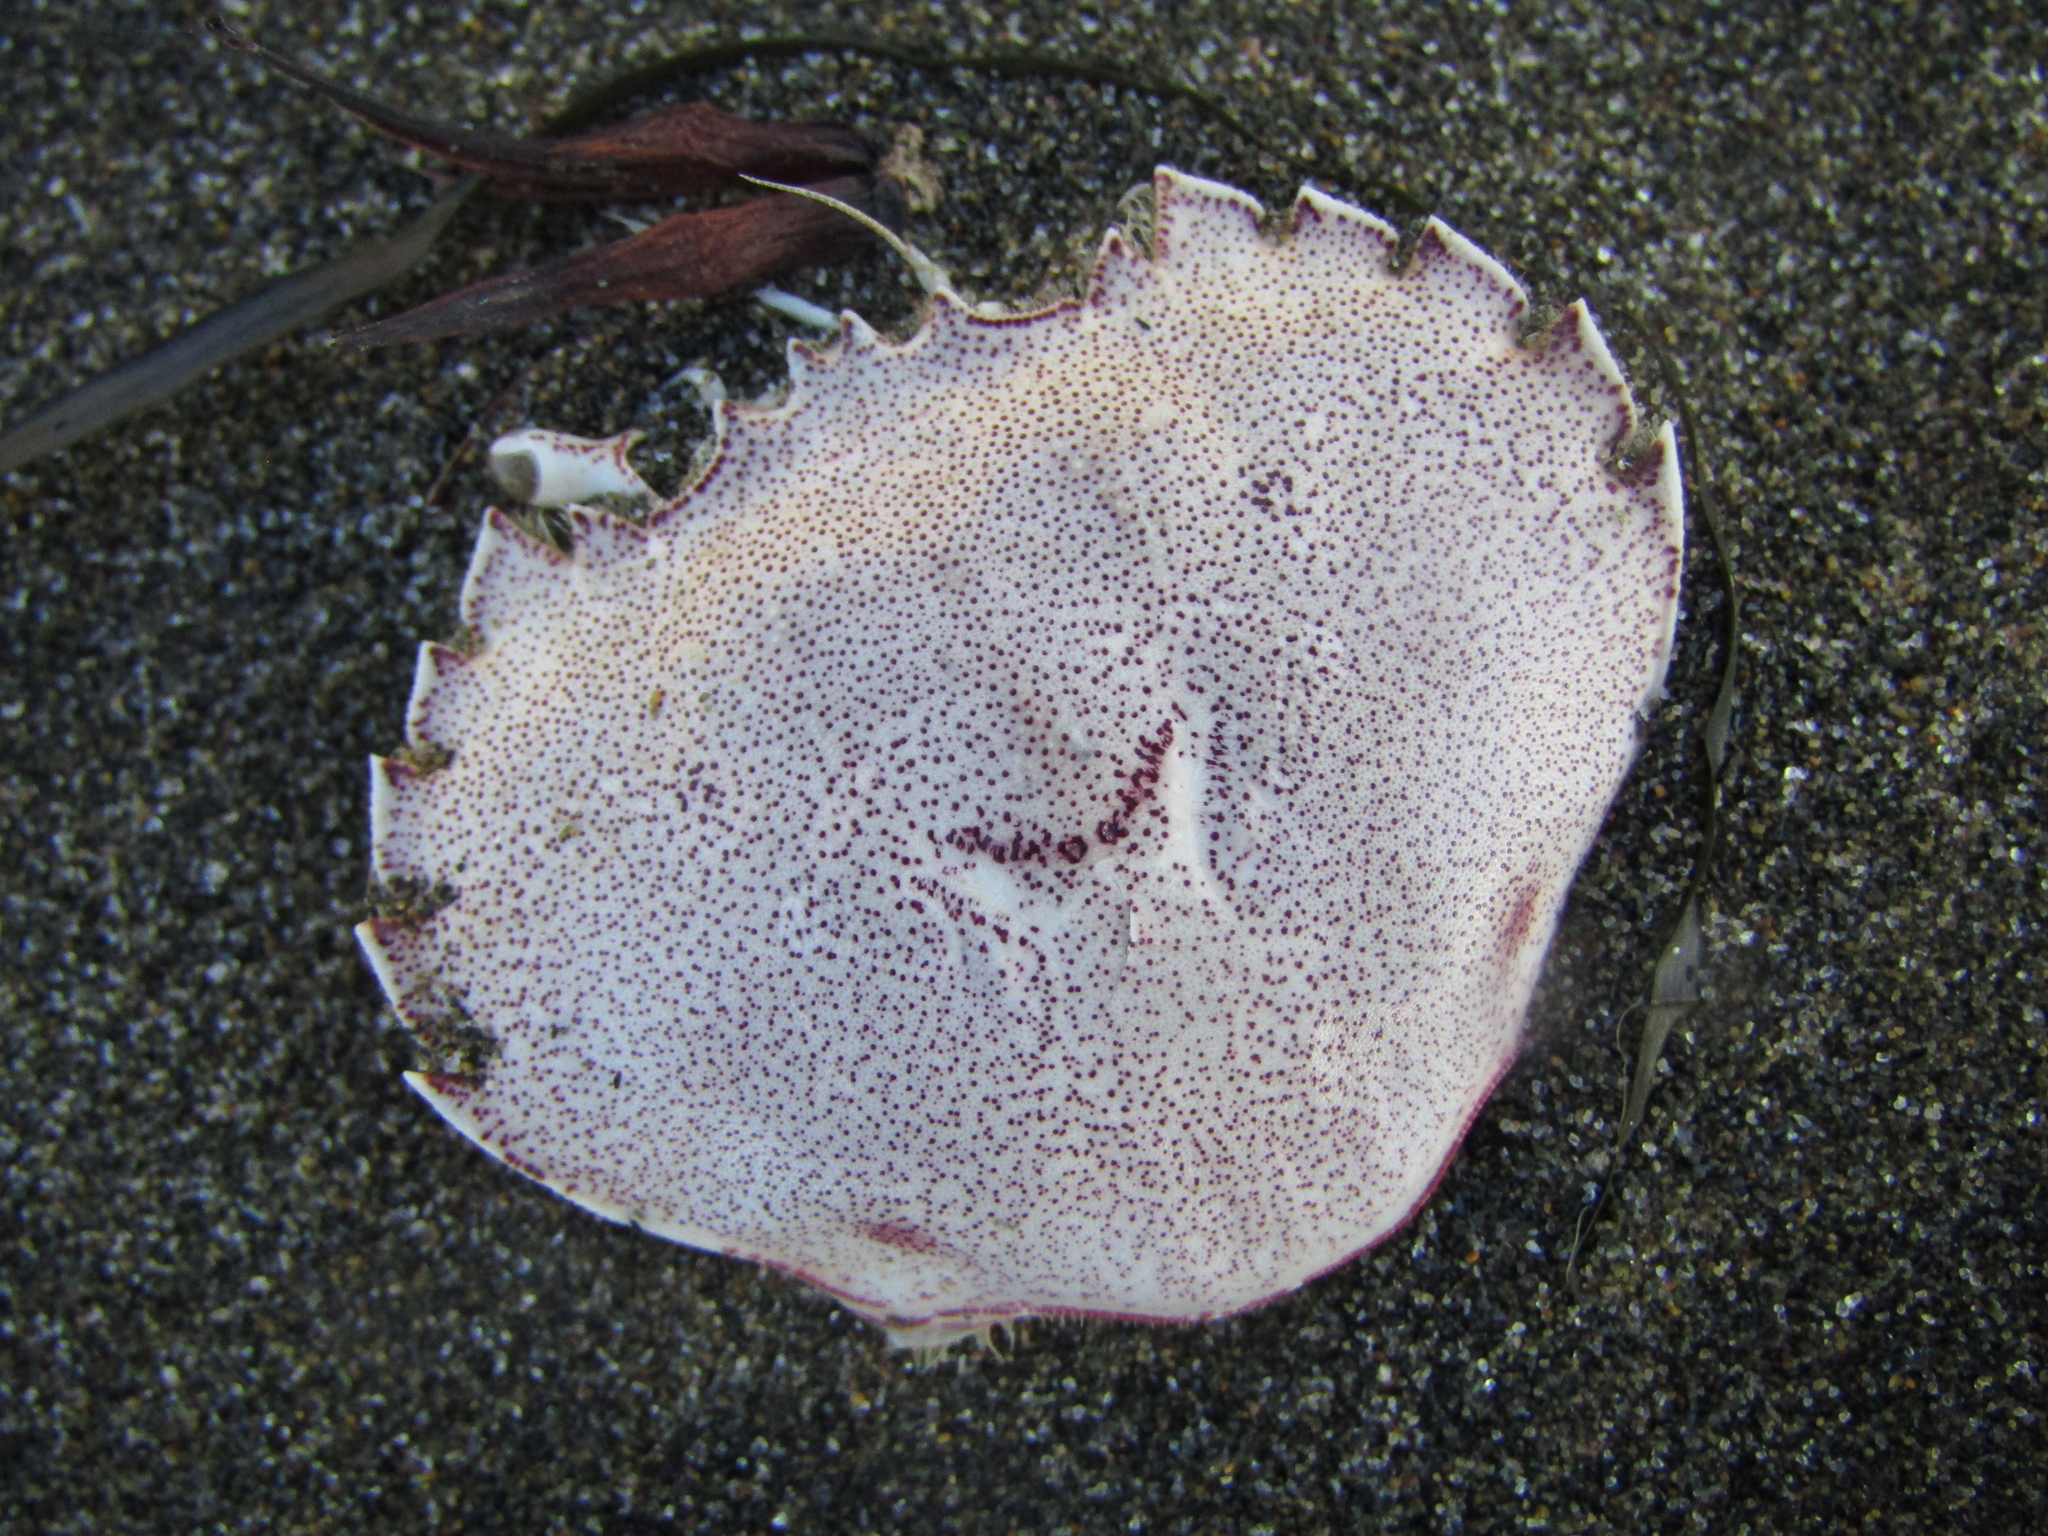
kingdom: Animalia
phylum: Arthropoda
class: Malacostraca
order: Decapoda
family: Ovalipidae
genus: Ovalipes
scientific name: Ovalipes catharus
